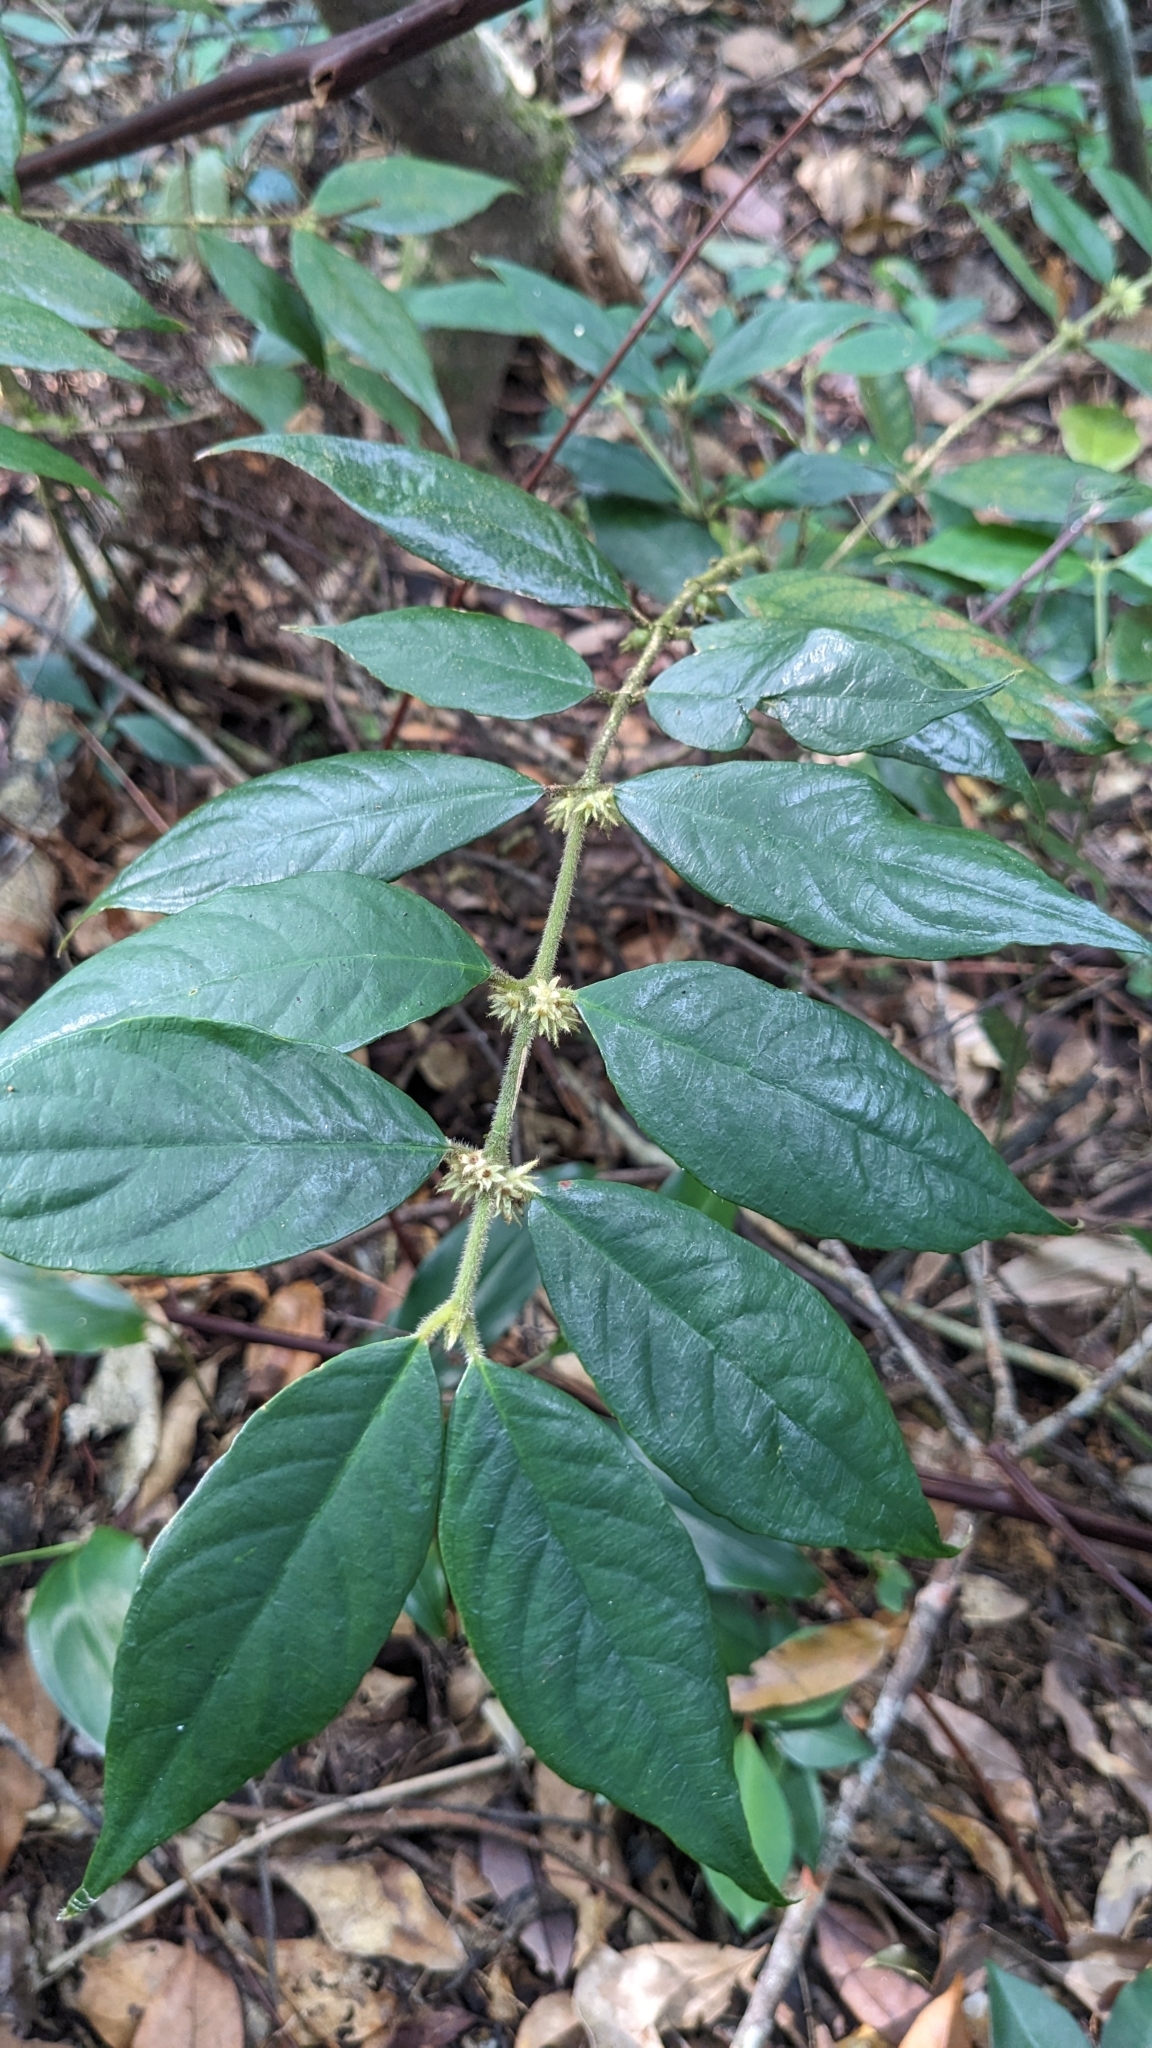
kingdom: Plantae
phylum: Tracheophyta
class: Magnoliopsida
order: Gentianales
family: Rubiaceae
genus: Lasianthus
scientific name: Lasianthus curtisii
